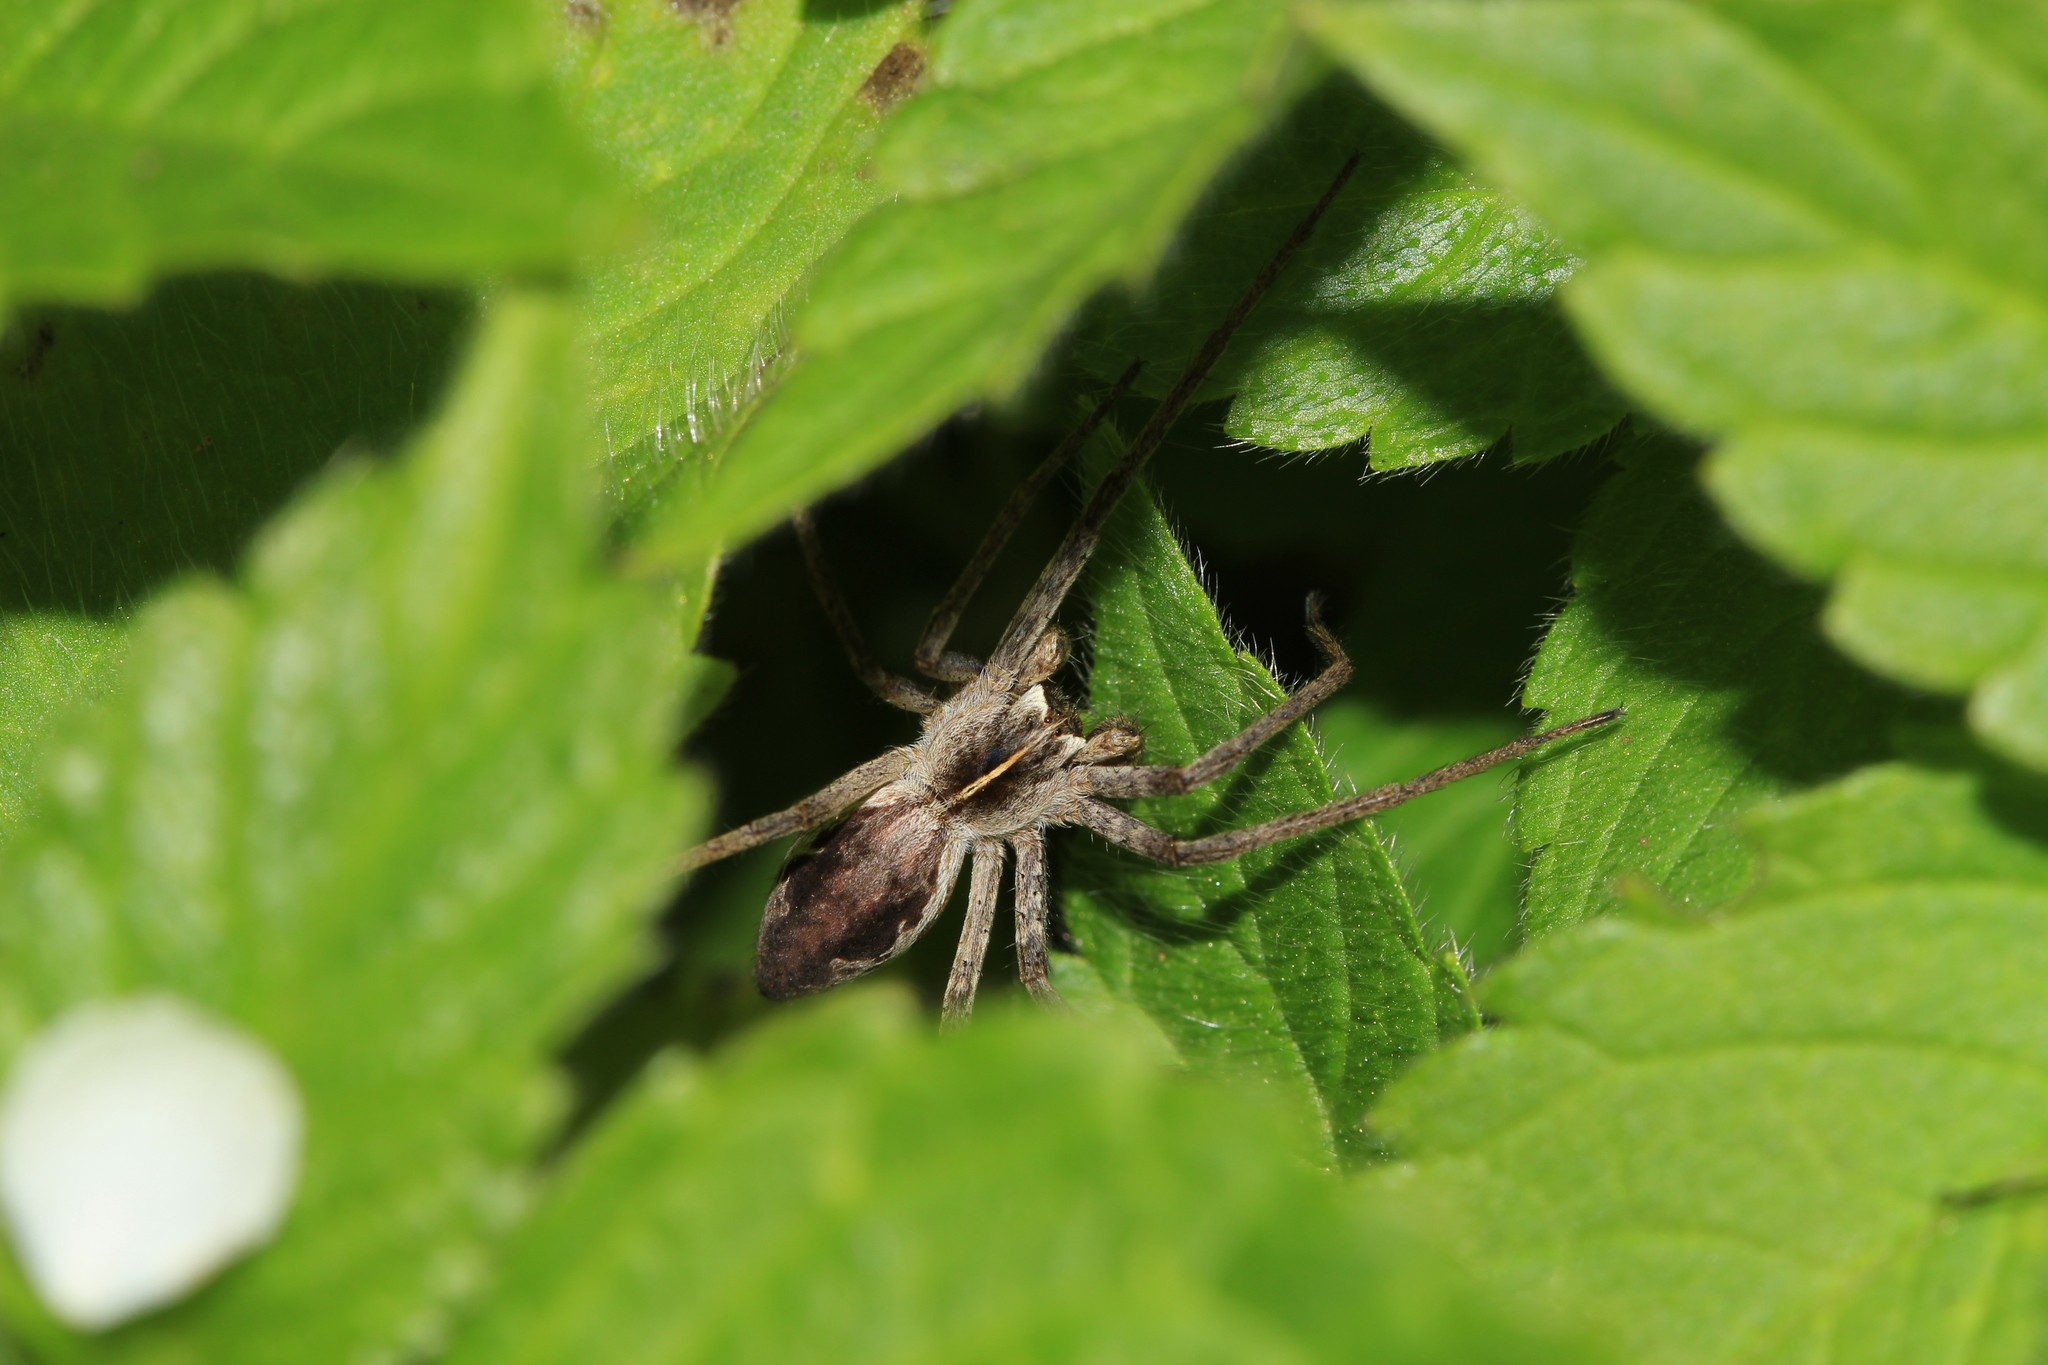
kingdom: Animalia
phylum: Arthropoda
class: Arachnida
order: Araneae
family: Pisauridae
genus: Pisaura
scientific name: Pisaura mirabilis
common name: Tent spider
